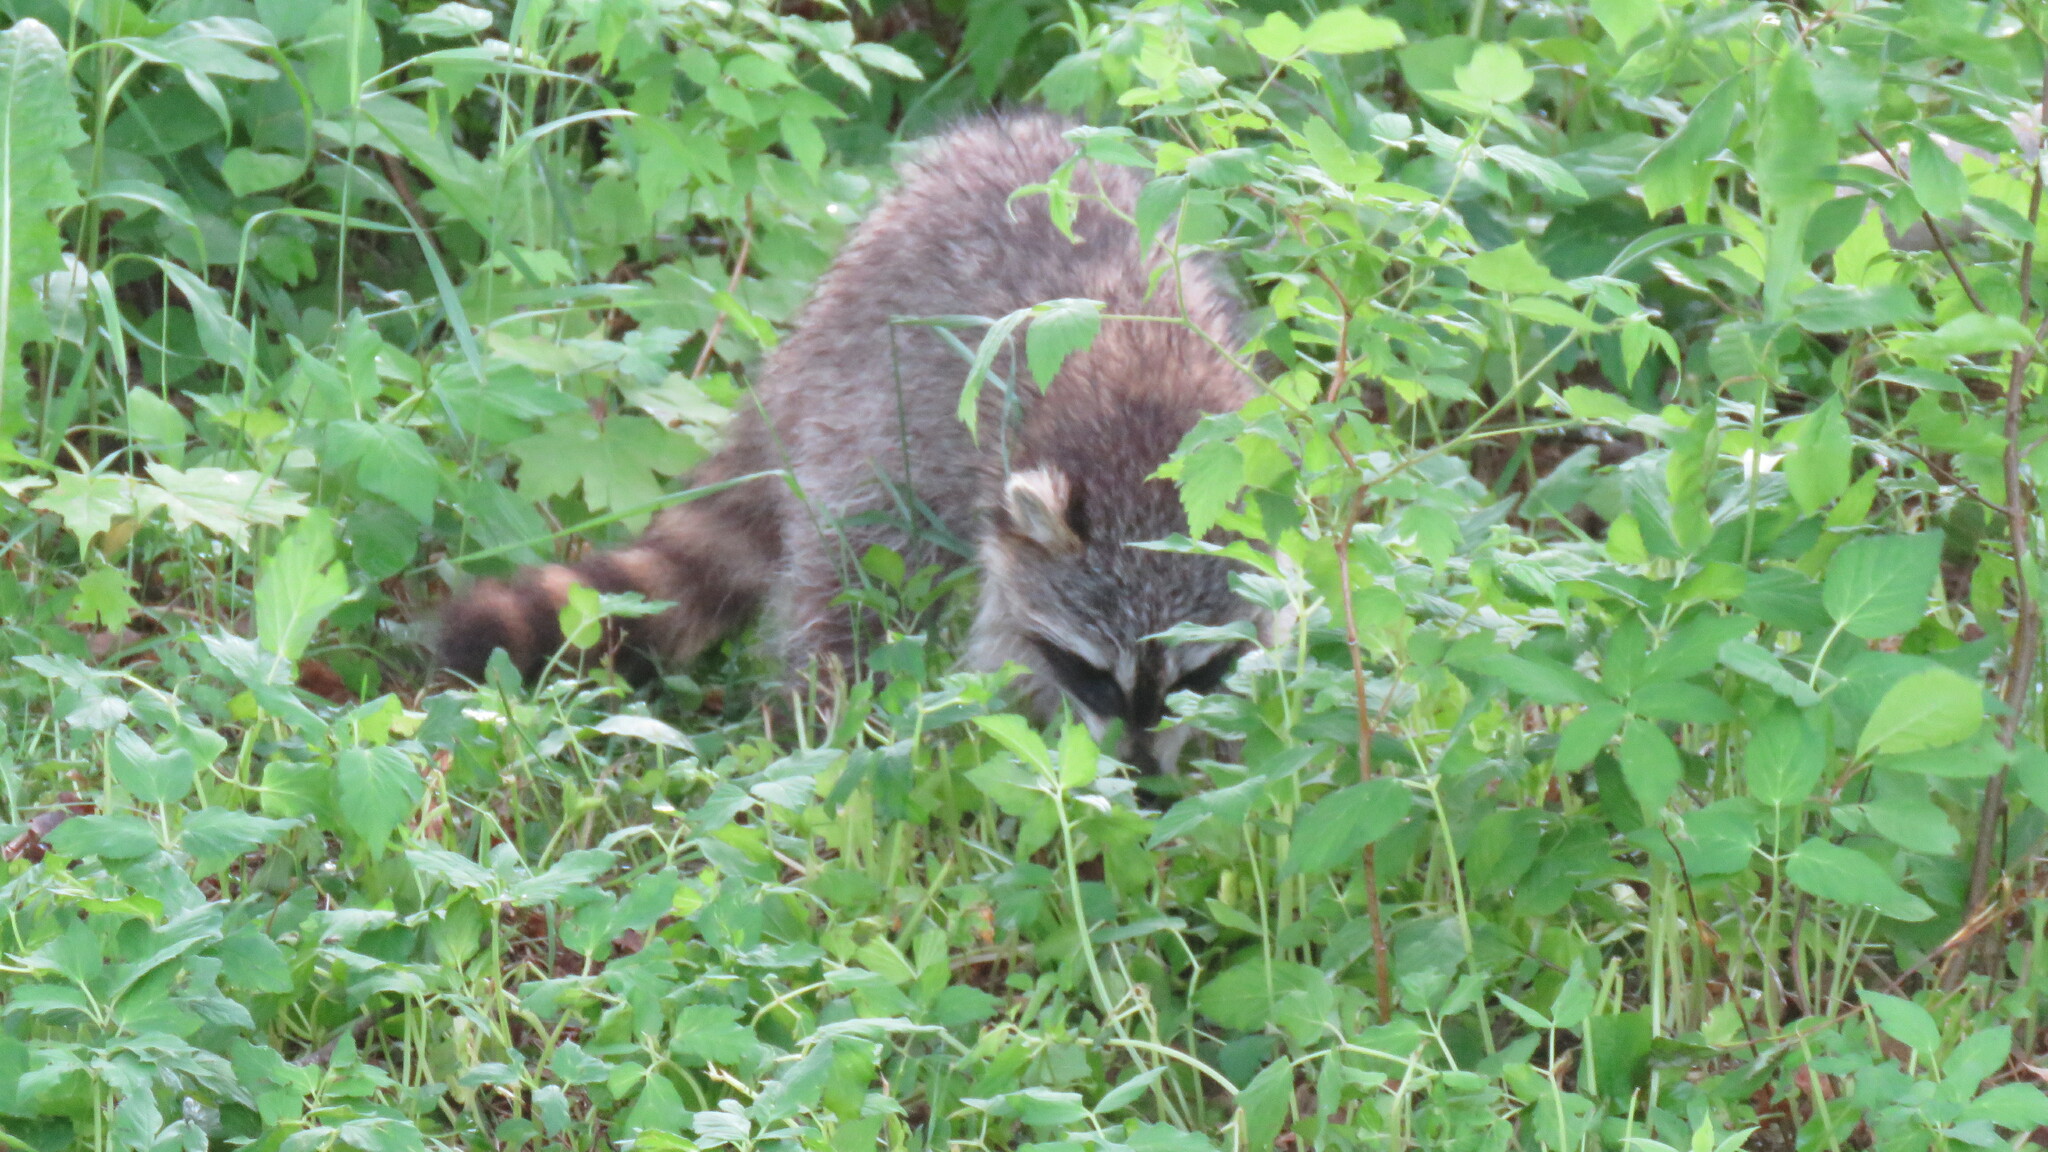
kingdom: Animalia
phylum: Chordata
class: Mammalia
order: Carnivora
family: Procyonidae
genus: Procyon
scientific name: Procyon lotor
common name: Raccoon
